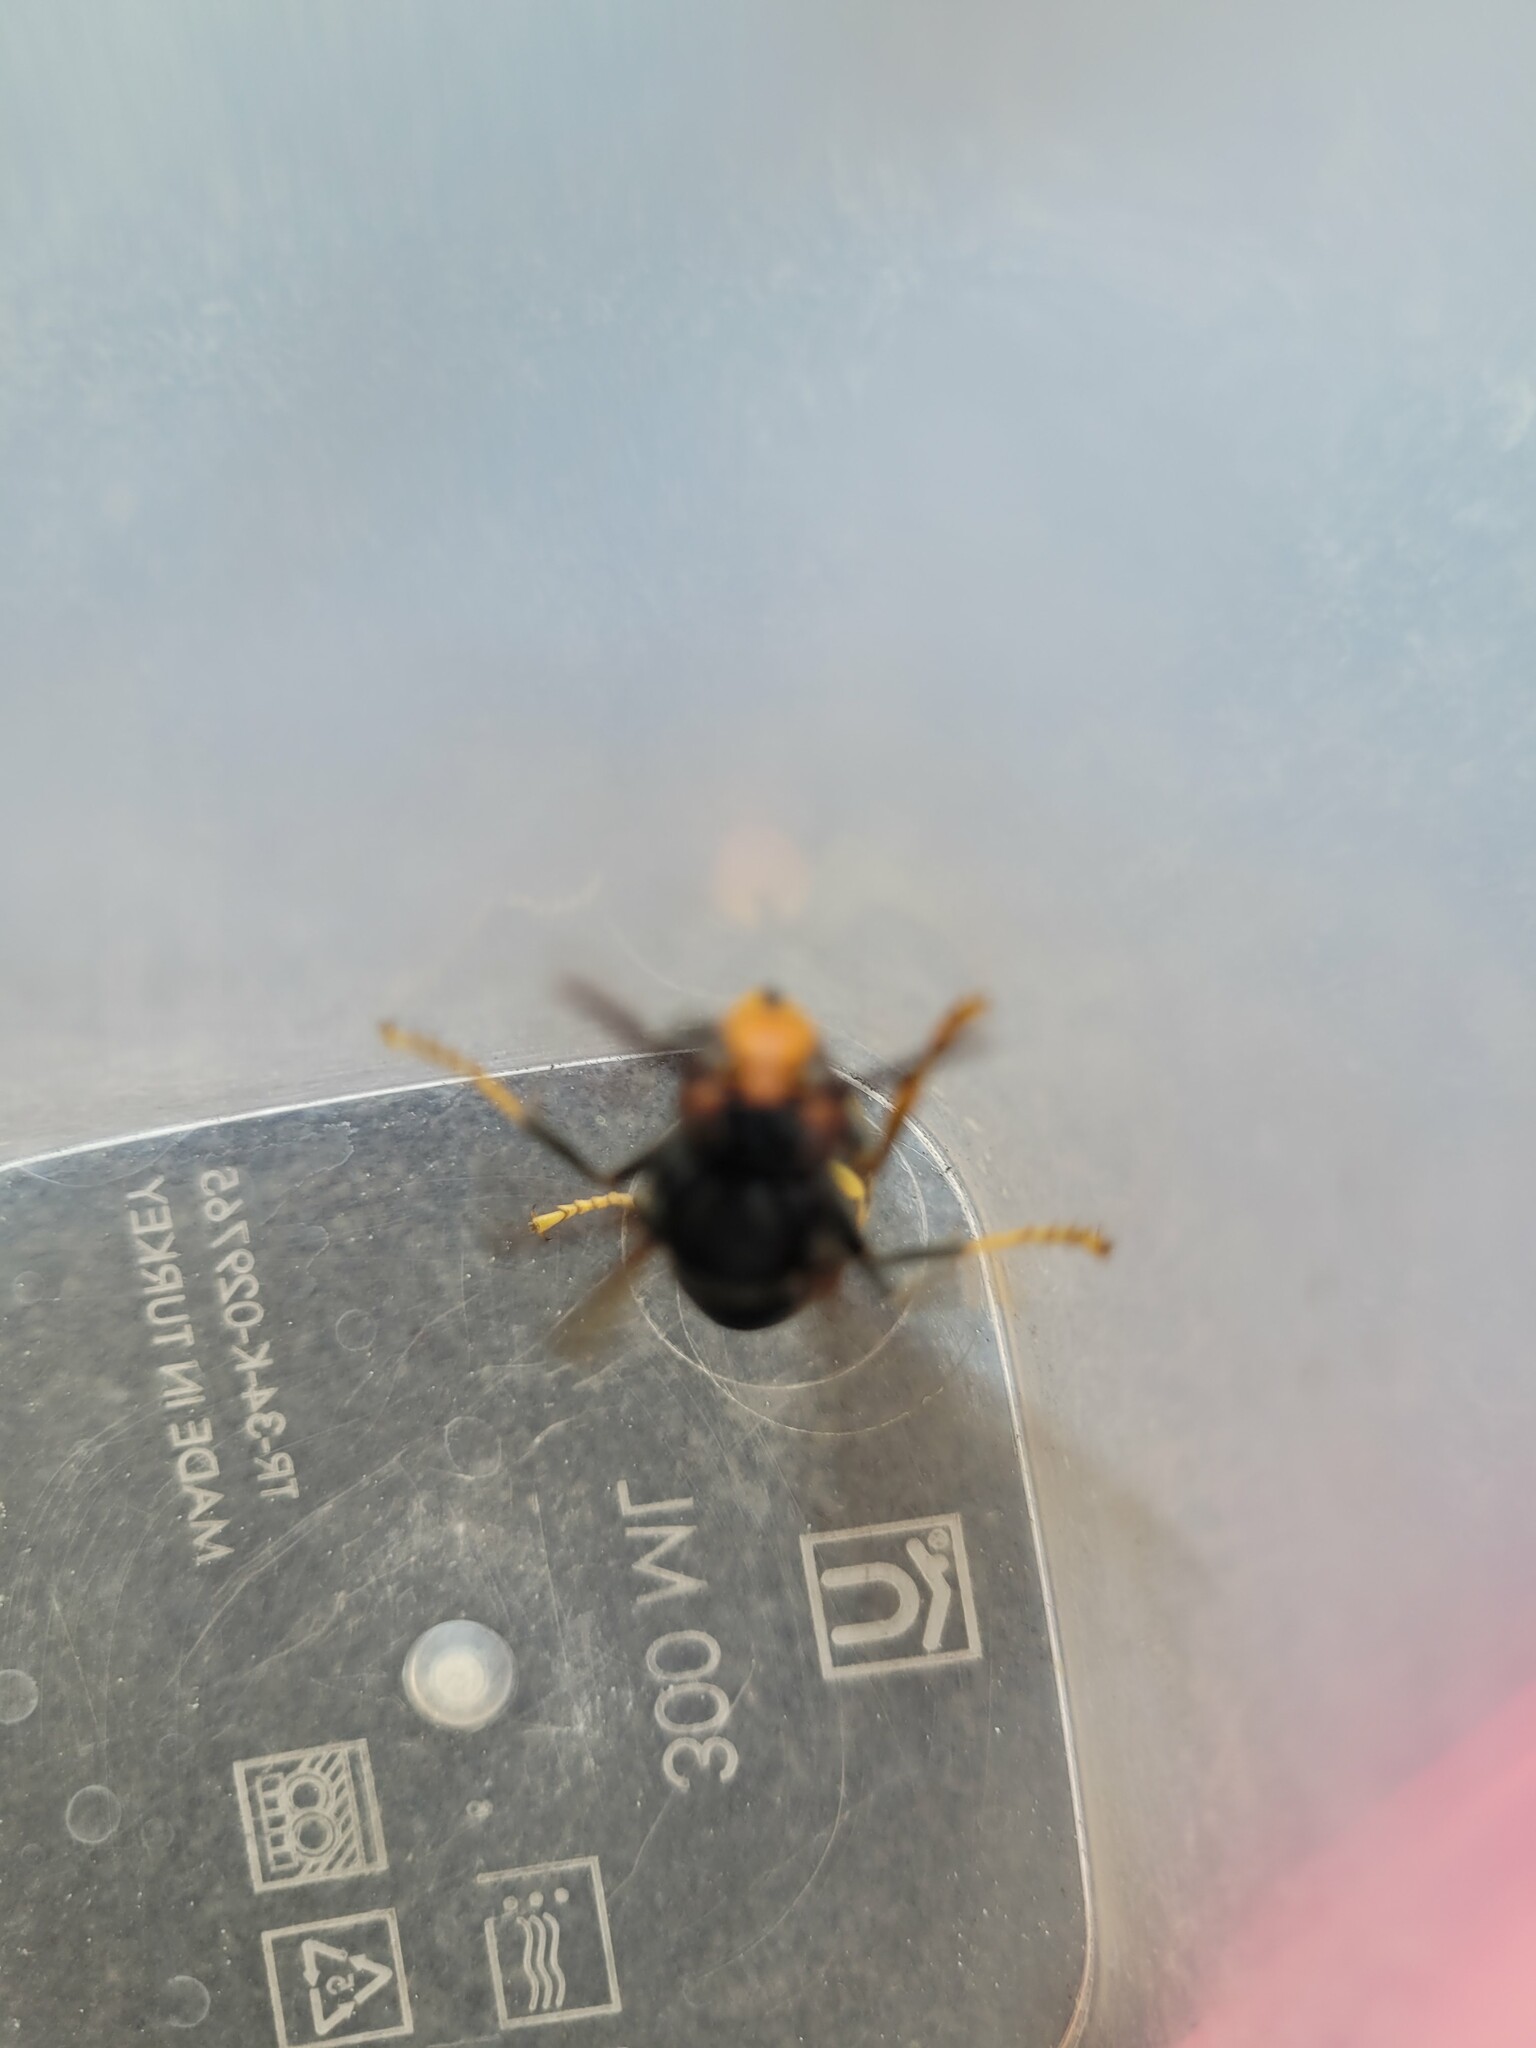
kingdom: Animalia
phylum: Arthropoda
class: Insecta
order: Hymenoptera
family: Vespidae
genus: Vespa
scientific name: Vespa velutina
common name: Asian hornet
